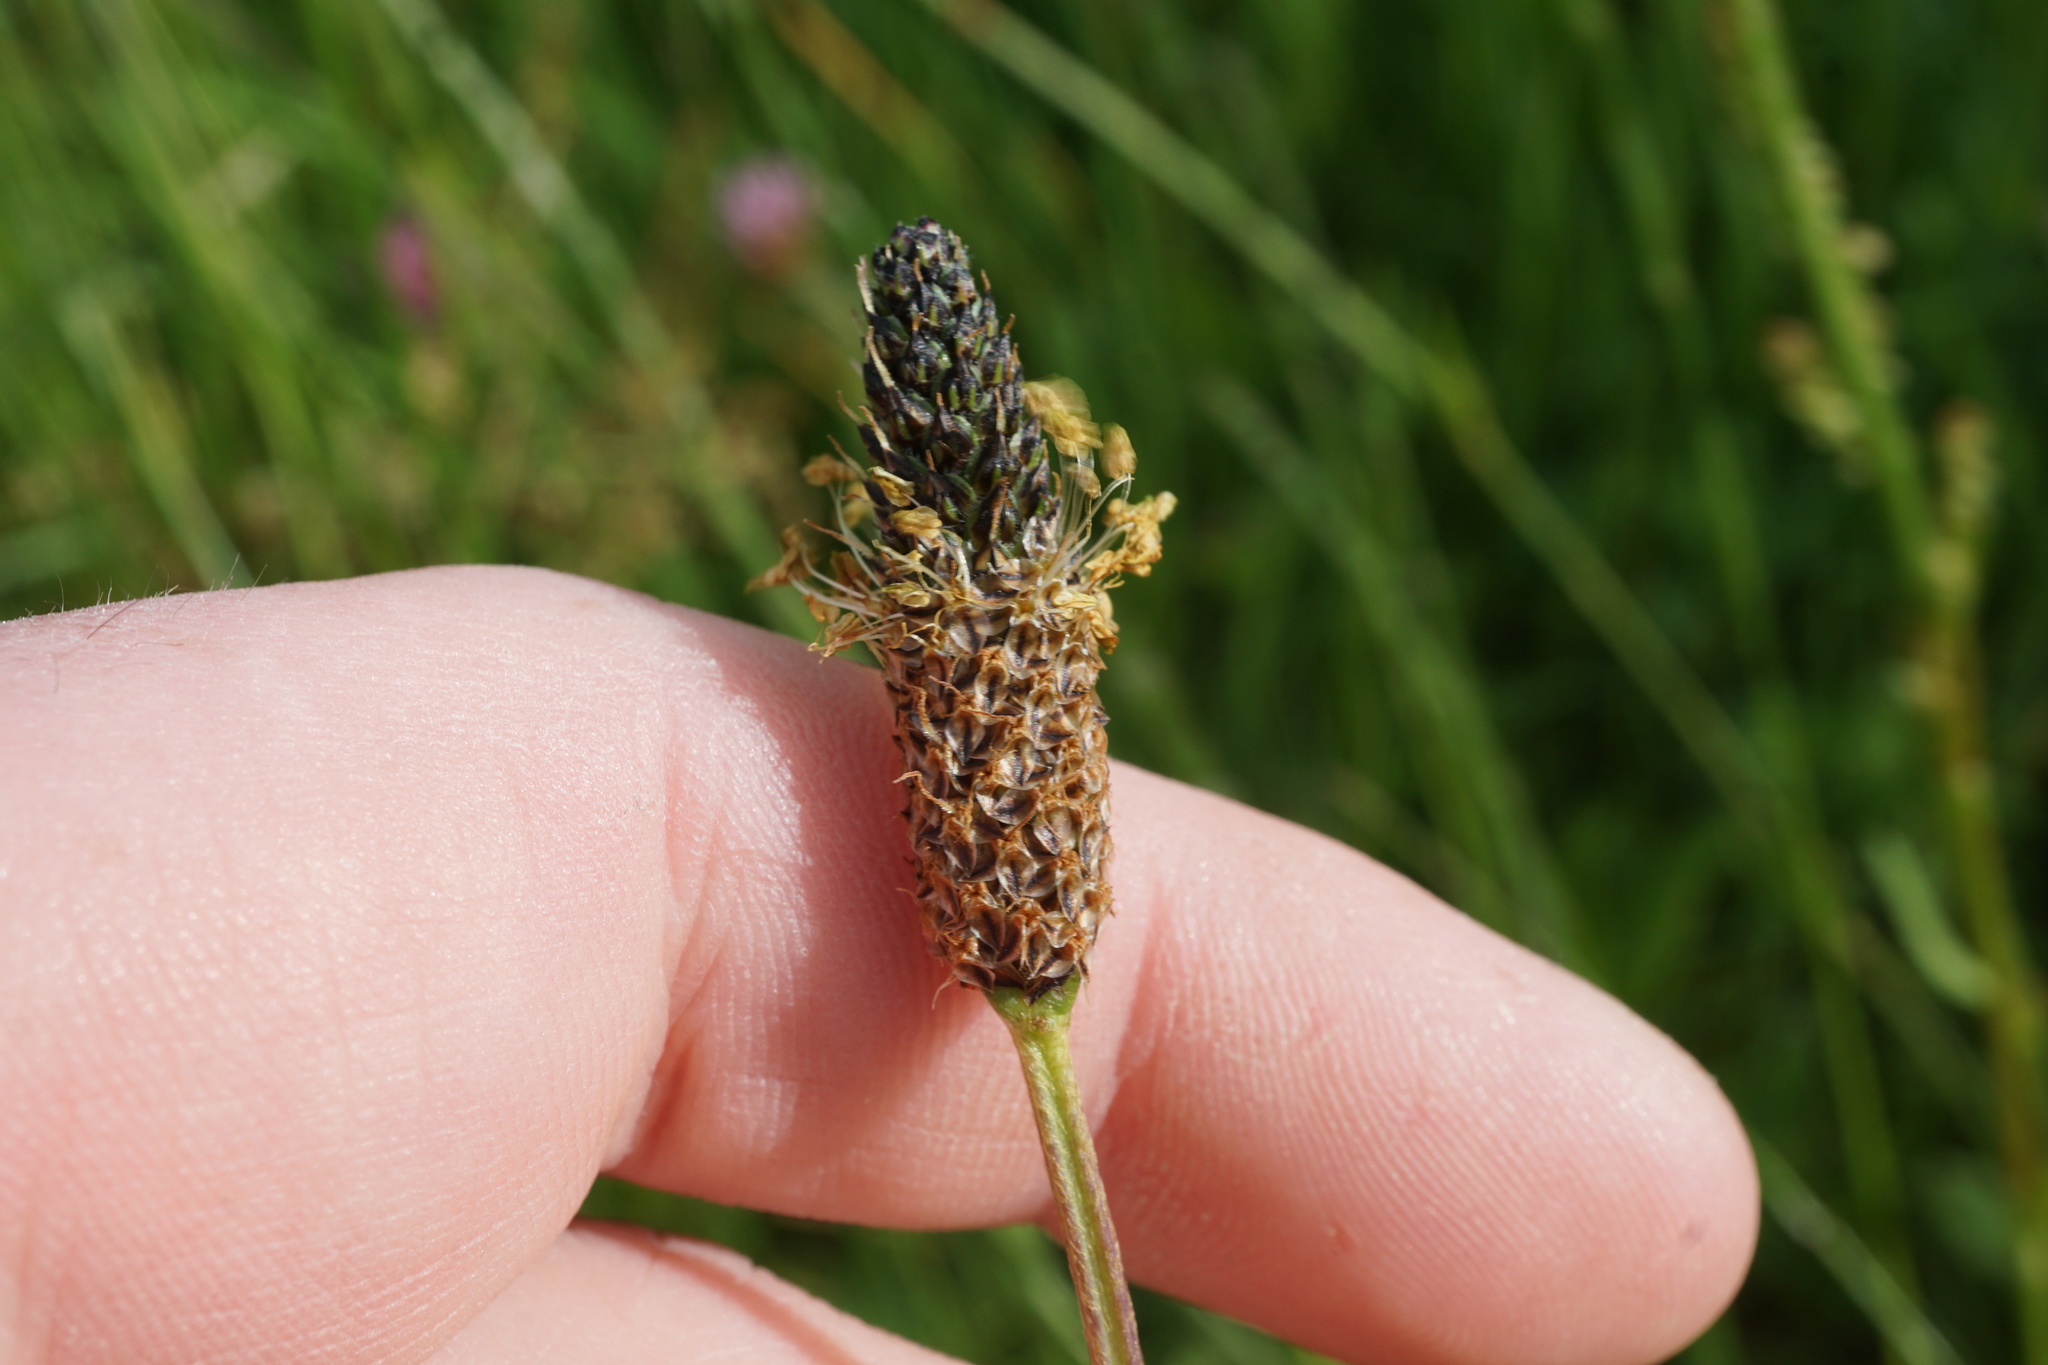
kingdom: Plantae
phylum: Tracheophyta
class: Magnoliopsida
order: Lamiales
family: Plantaginaceae
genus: Plantago
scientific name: Plantago lanceolata
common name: Ribwort plantain
